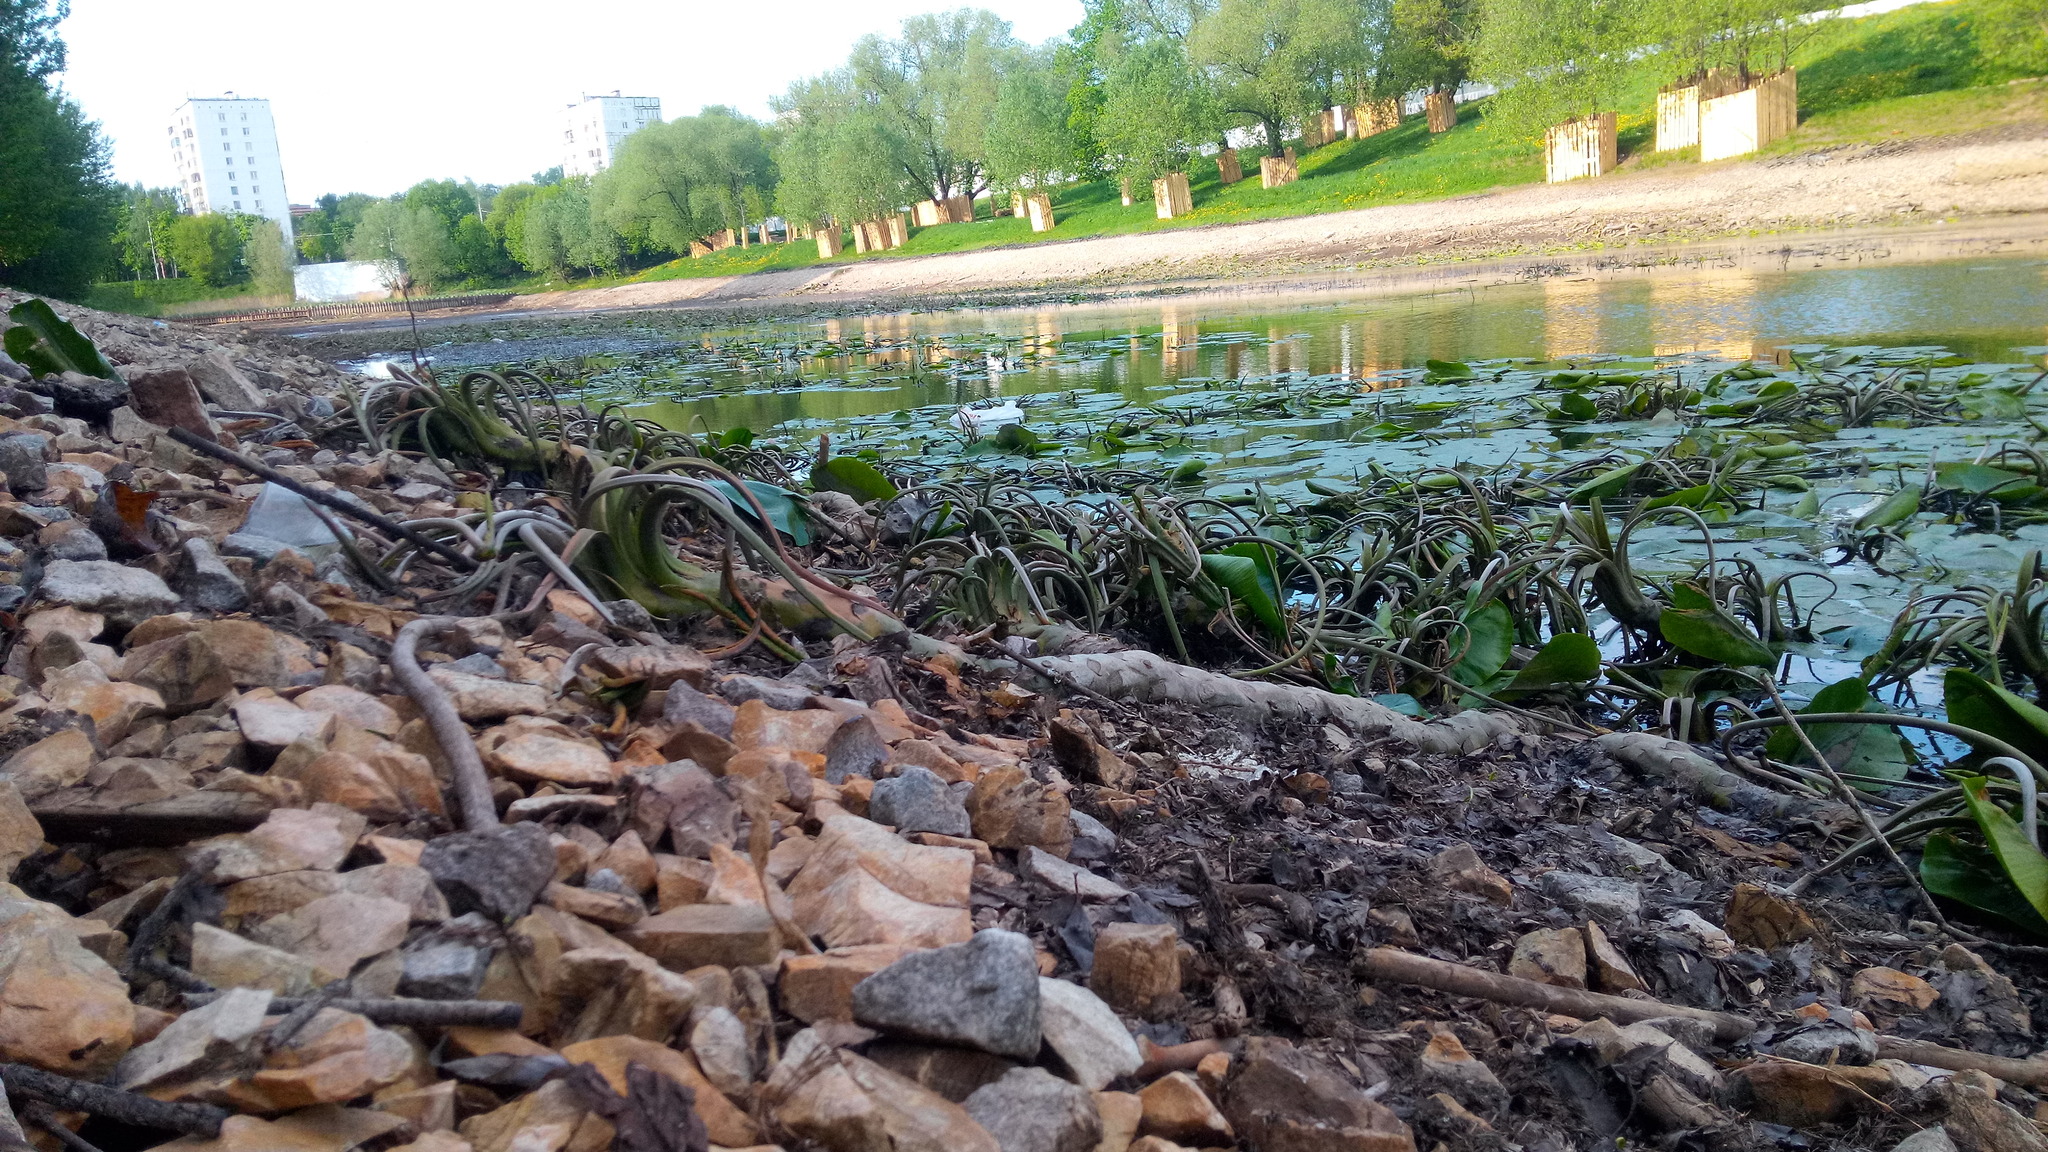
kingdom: Plantae
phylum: Tracheophyta
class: Magnoliopsida
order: Nymphaeales
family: Nymphaeaceae
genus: Nuphar
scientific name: Nuphar lutea
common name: Yellow water-lily
